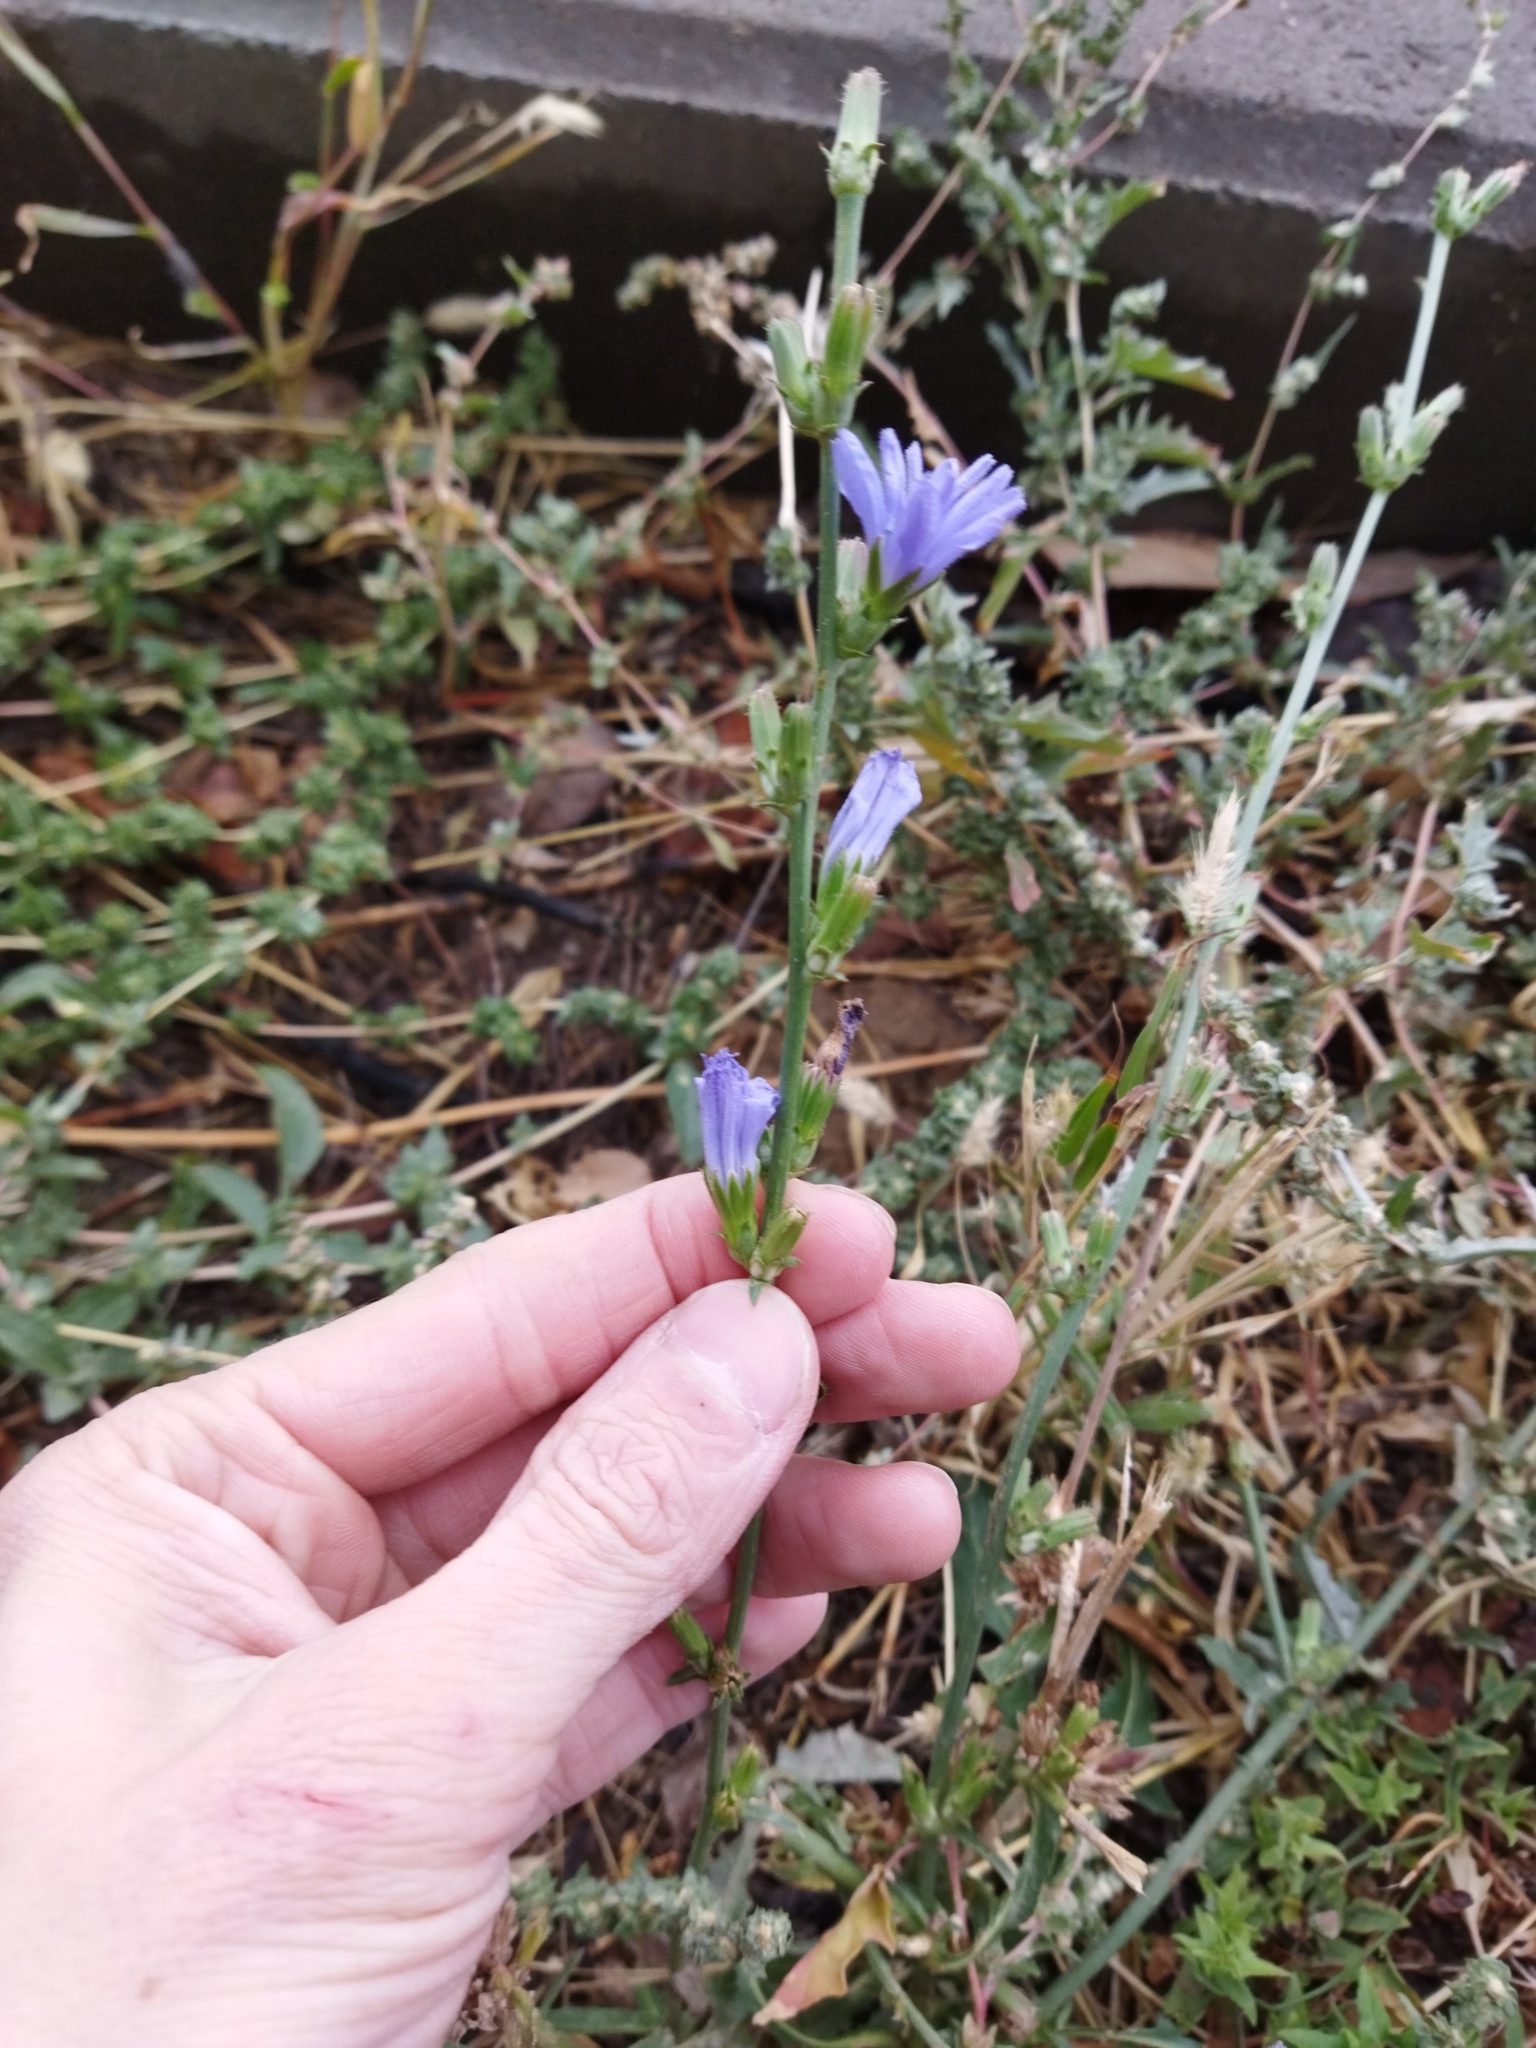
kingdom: Plantae
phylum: Tracheophyta
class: Magnoliopsida
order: Asterales
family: Asteraceae
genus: Cichorium
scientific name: Cichorium intybus
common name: Chicory
